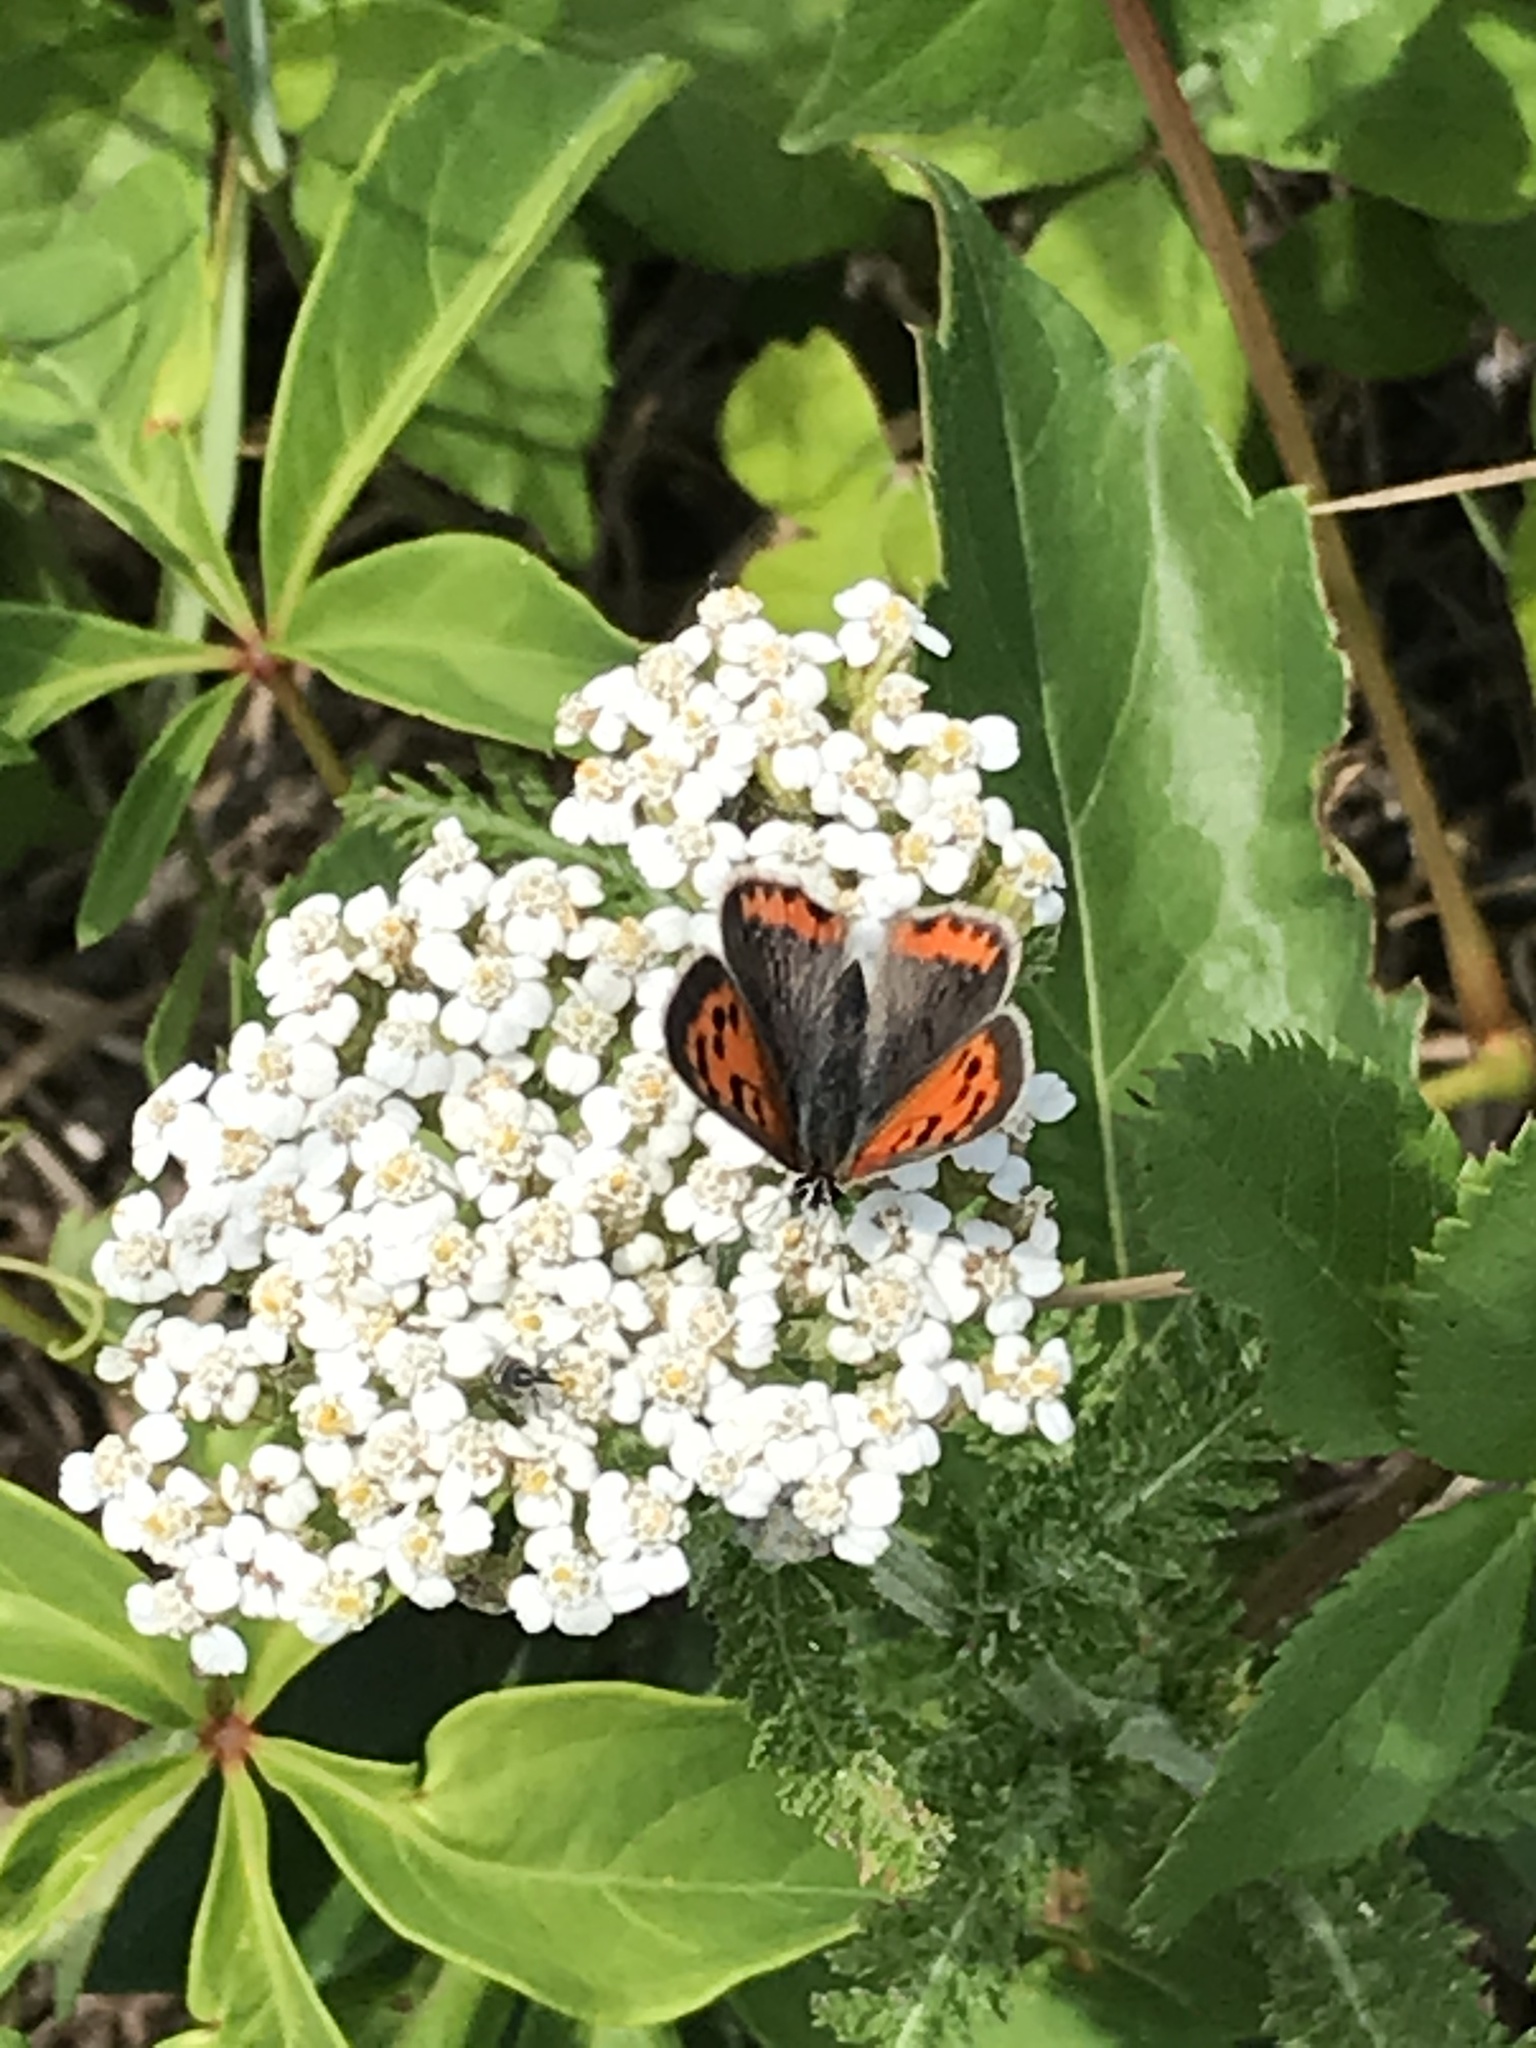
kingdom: Animalia
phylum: Arthropoda
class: Insecta
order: Lepidoptera
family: Lycaenidae
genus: Lycaena
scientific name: Lycaena hypophlaeas
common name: American copper
